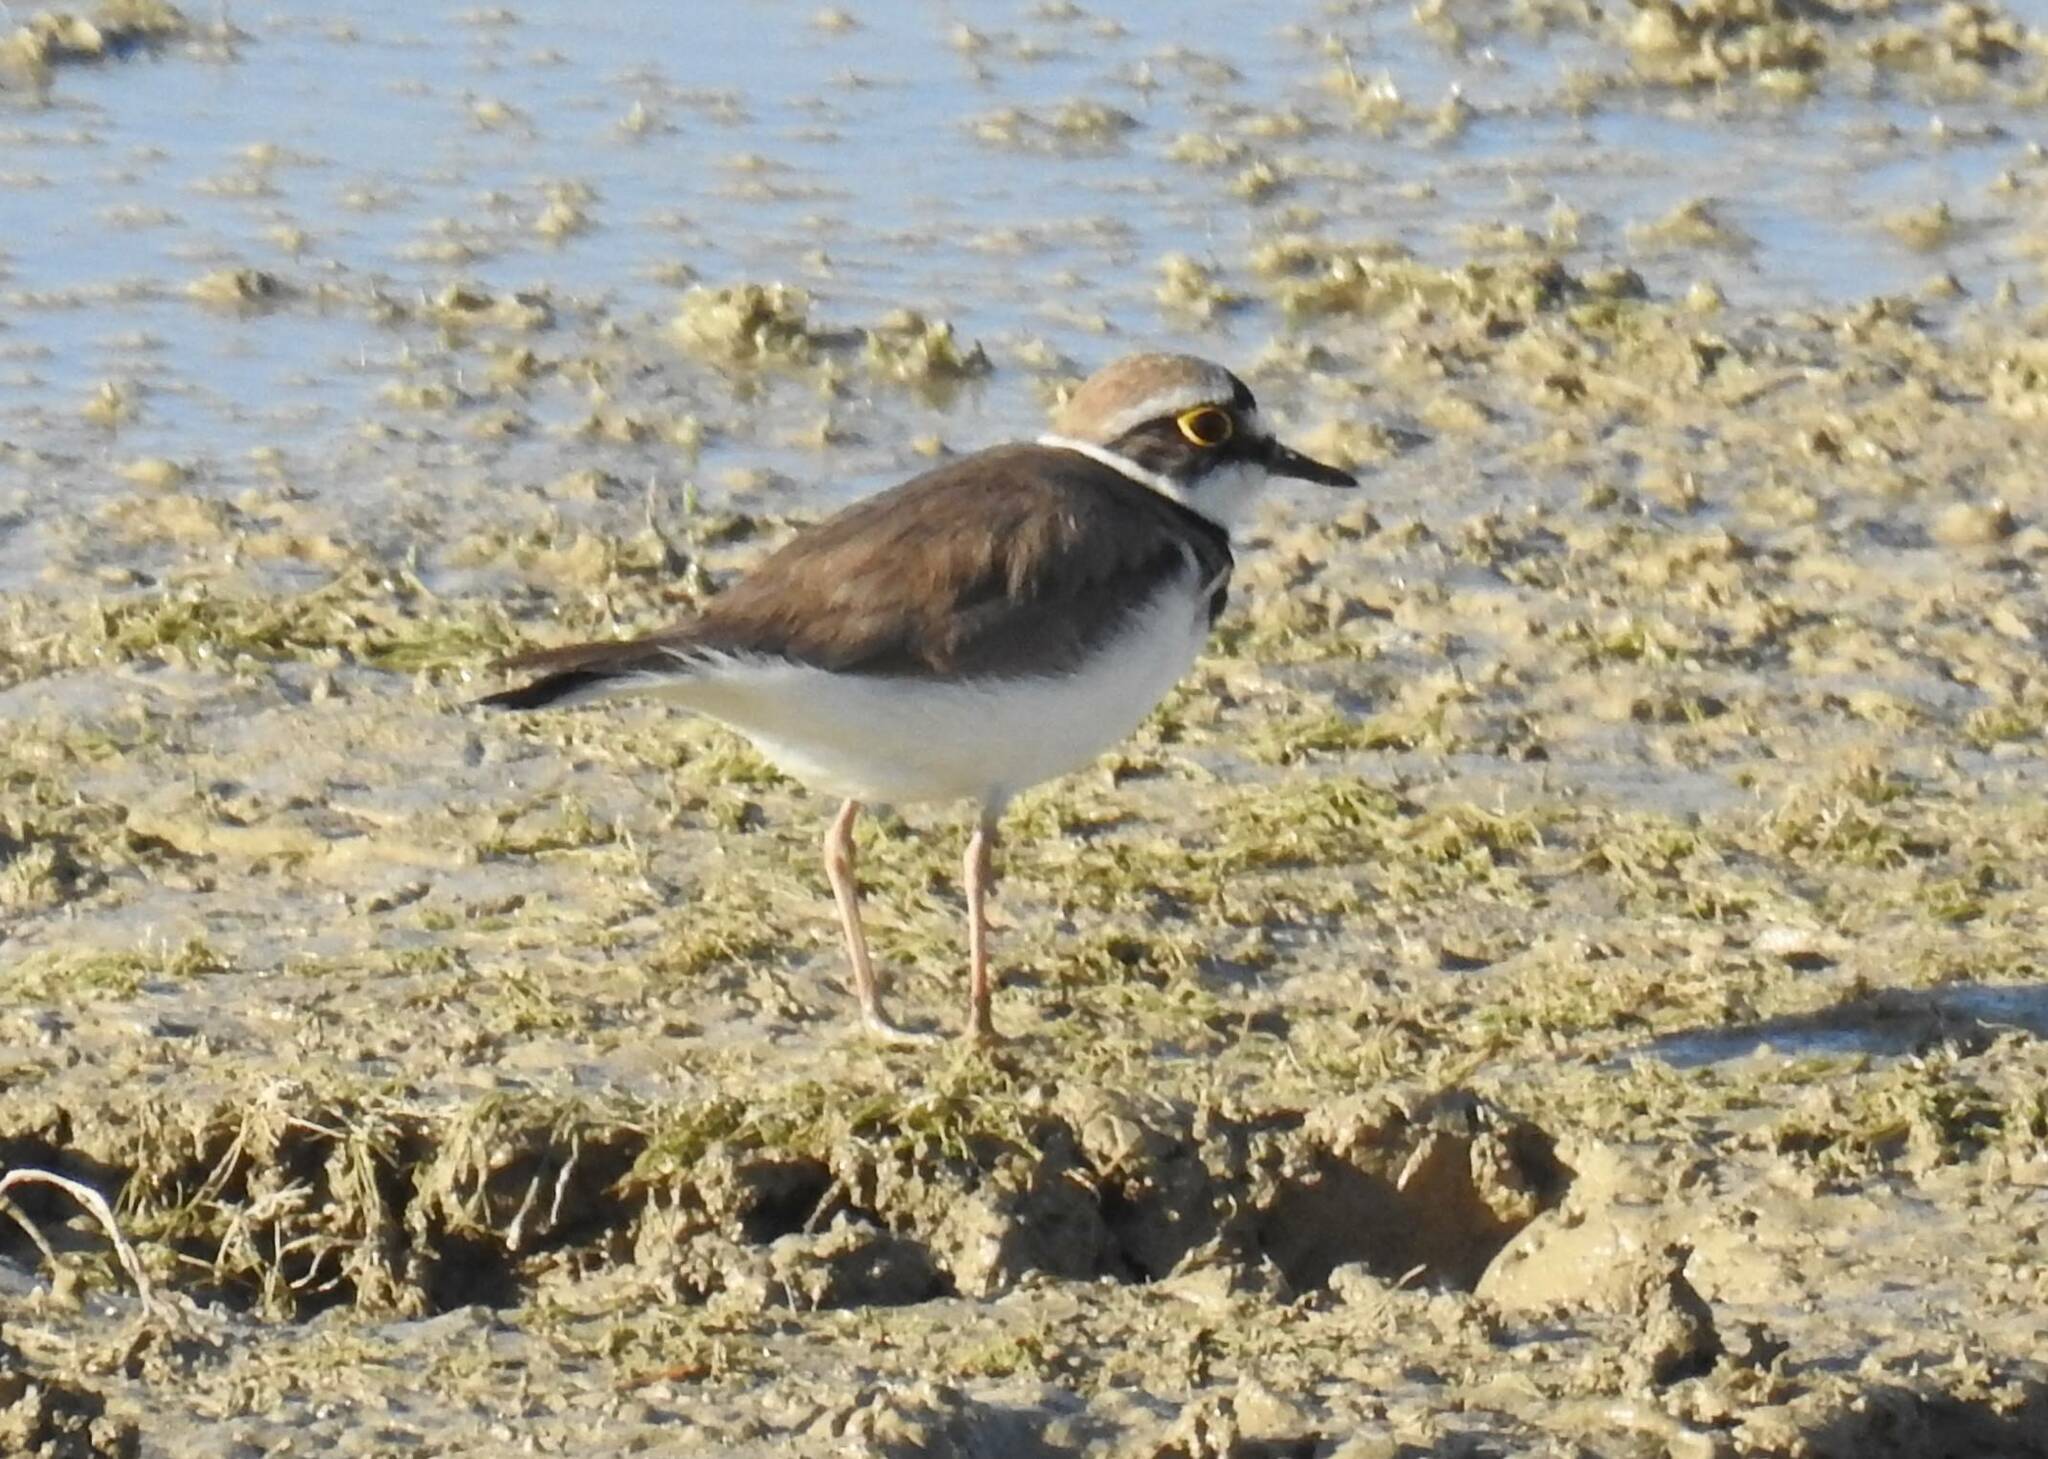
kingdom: Animalia
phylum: Chordata
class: Aves
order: Charadriiformes
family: Charadriidae
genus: Charadrius
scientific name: Charadrius dubius
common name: Little ringed plover
